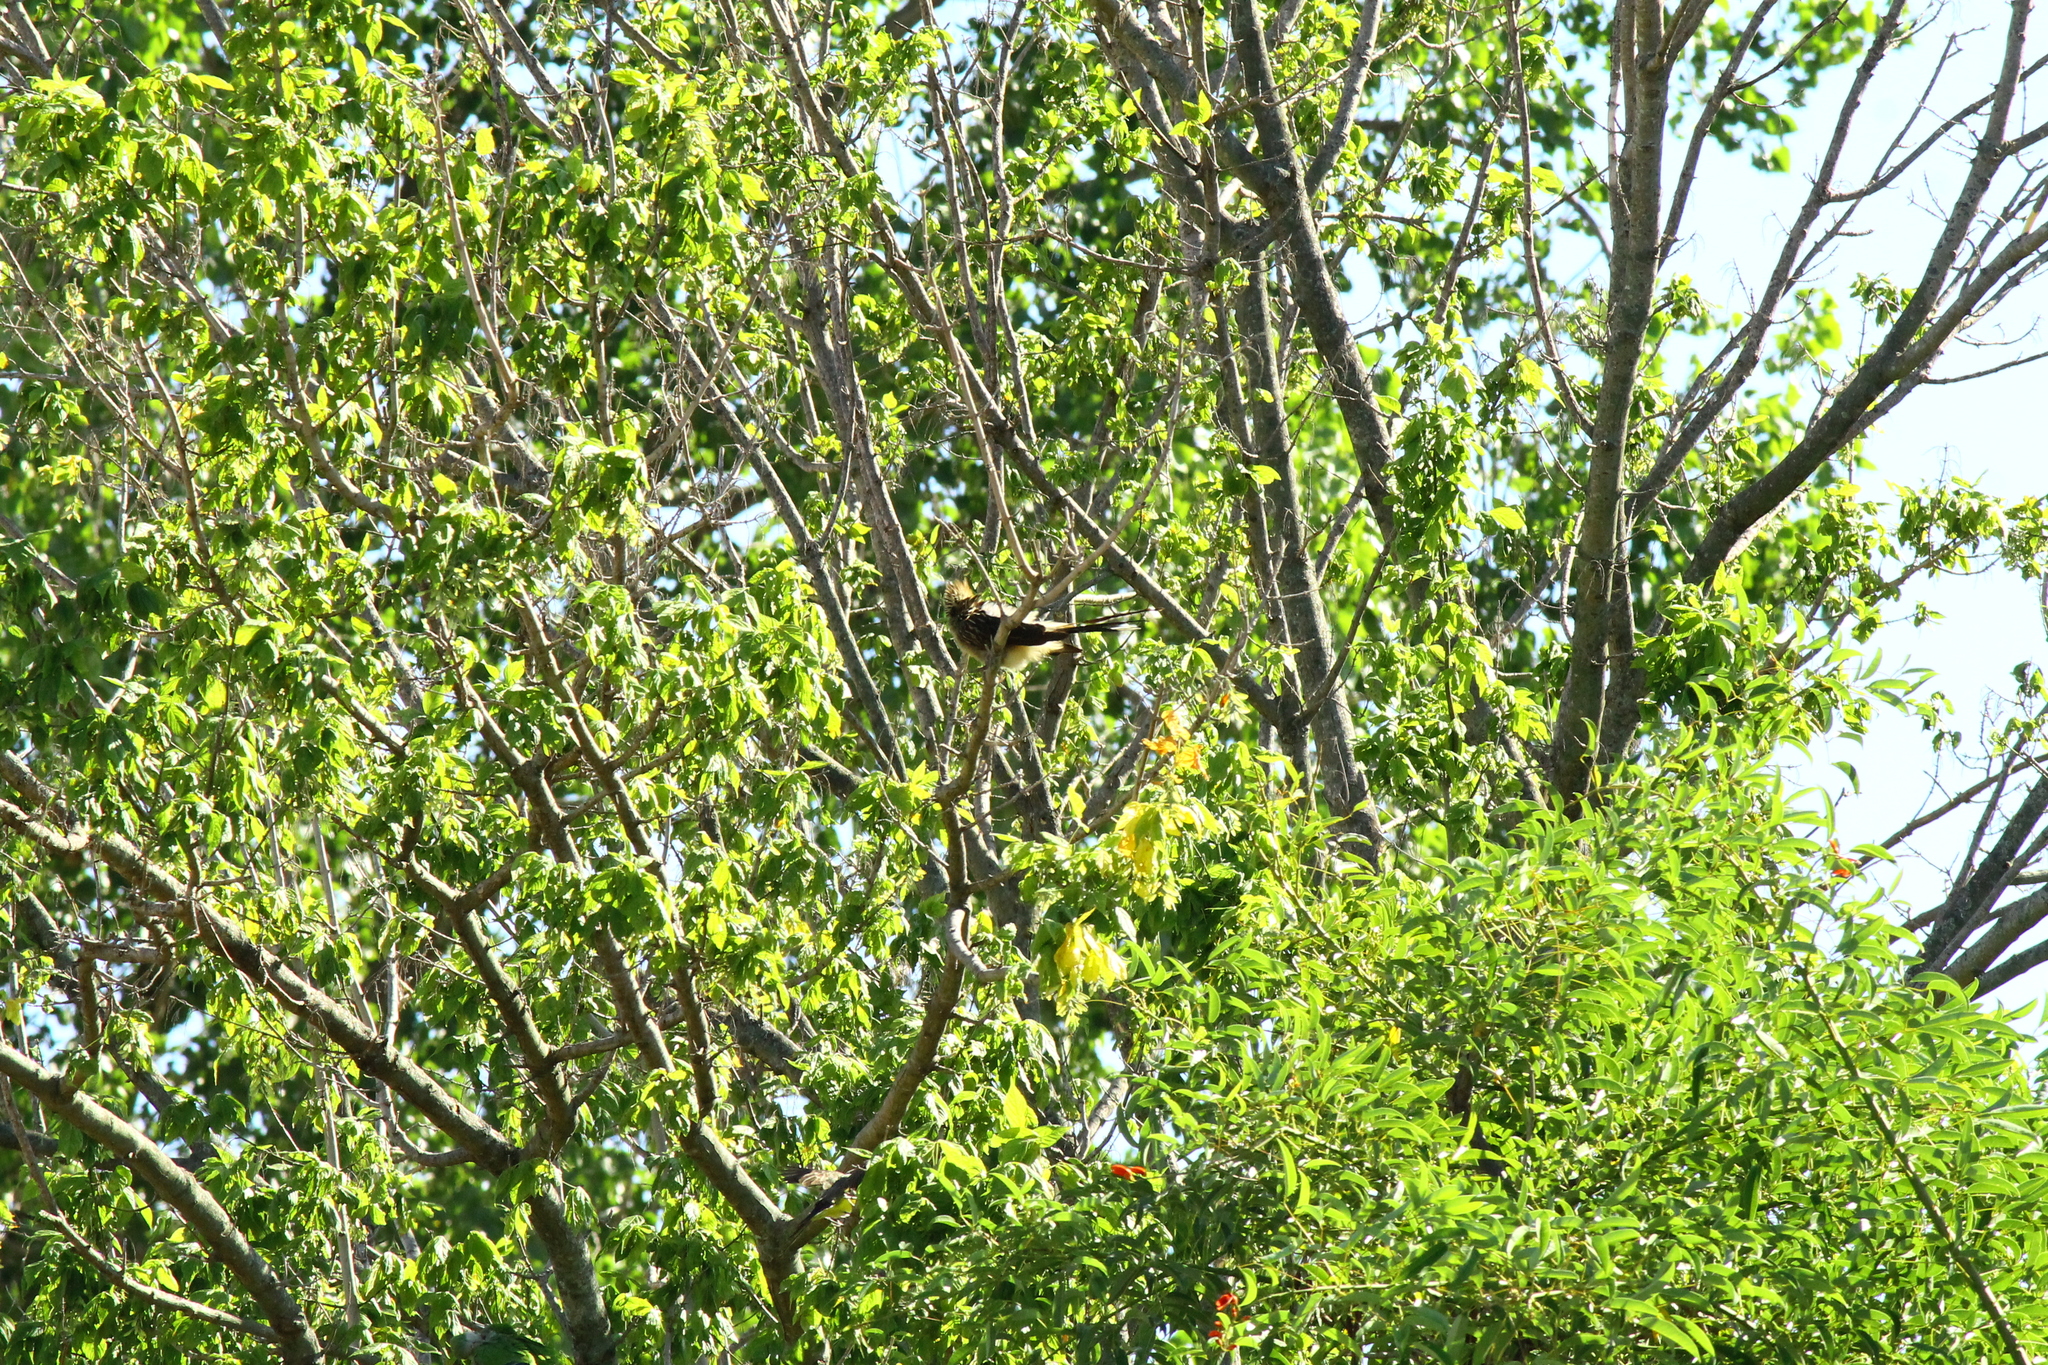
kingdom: Animalia
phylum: Chordata
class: Aves
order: Cuculiformes
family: Cuculidae
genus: Guira
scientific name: Guira guira
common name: Guira cuckoo
